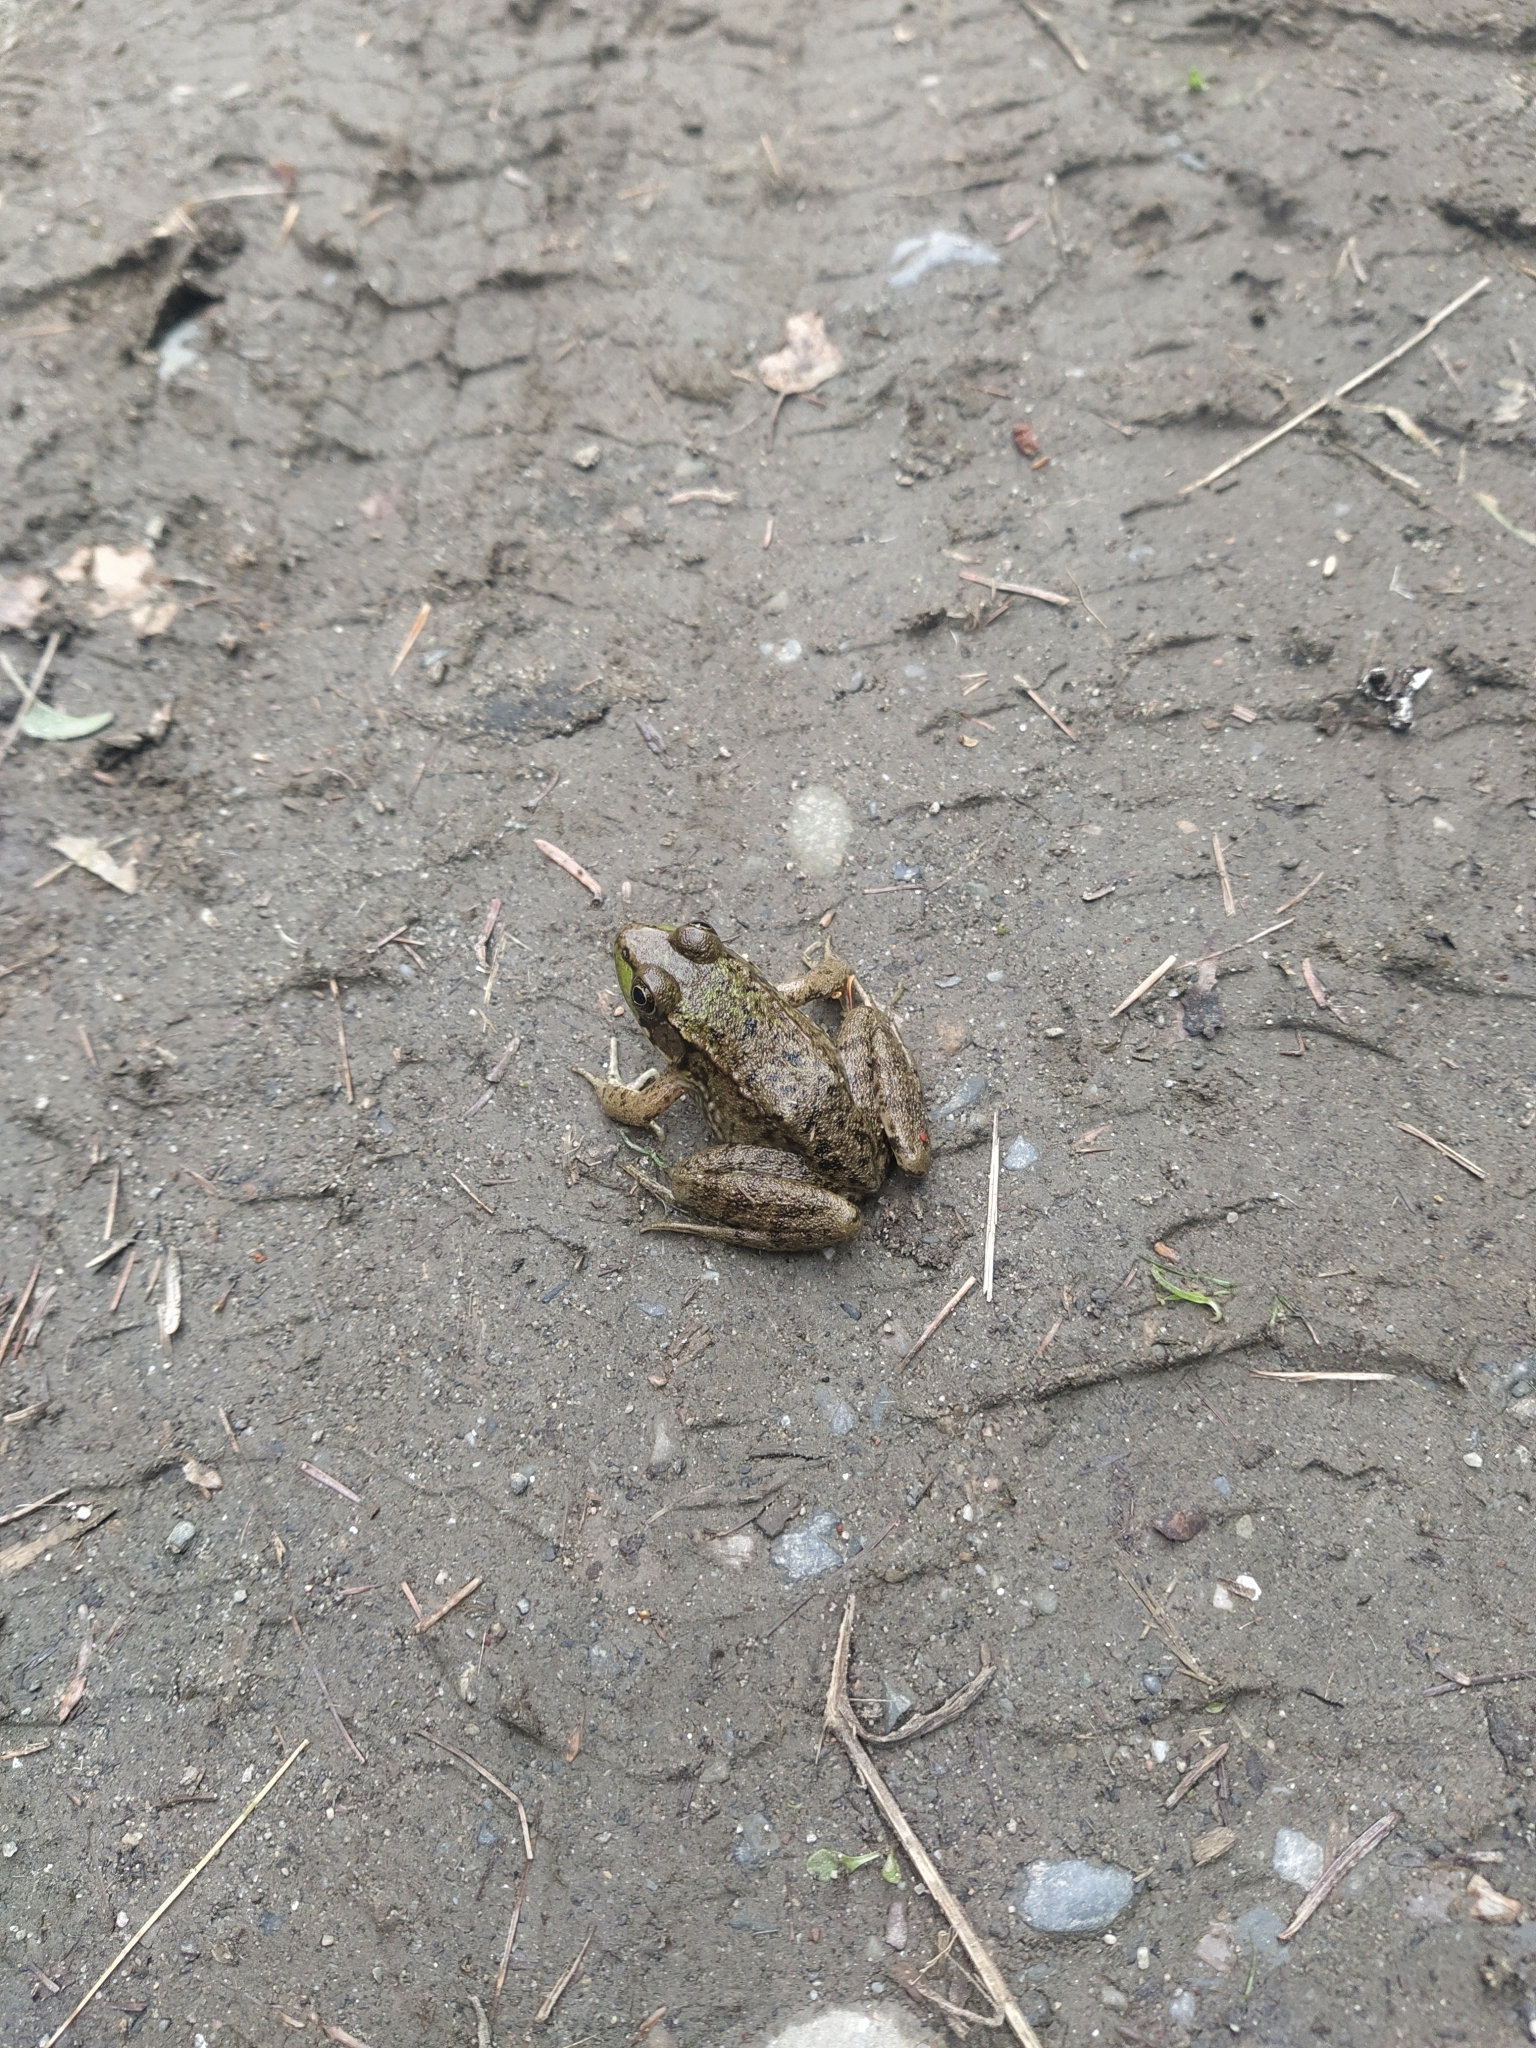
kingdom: Animalia
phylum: Chordata
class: Amphibia
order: Anura
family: Ranidae
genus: Lithobates
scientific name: Lithobates clamitans
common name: Green frog
